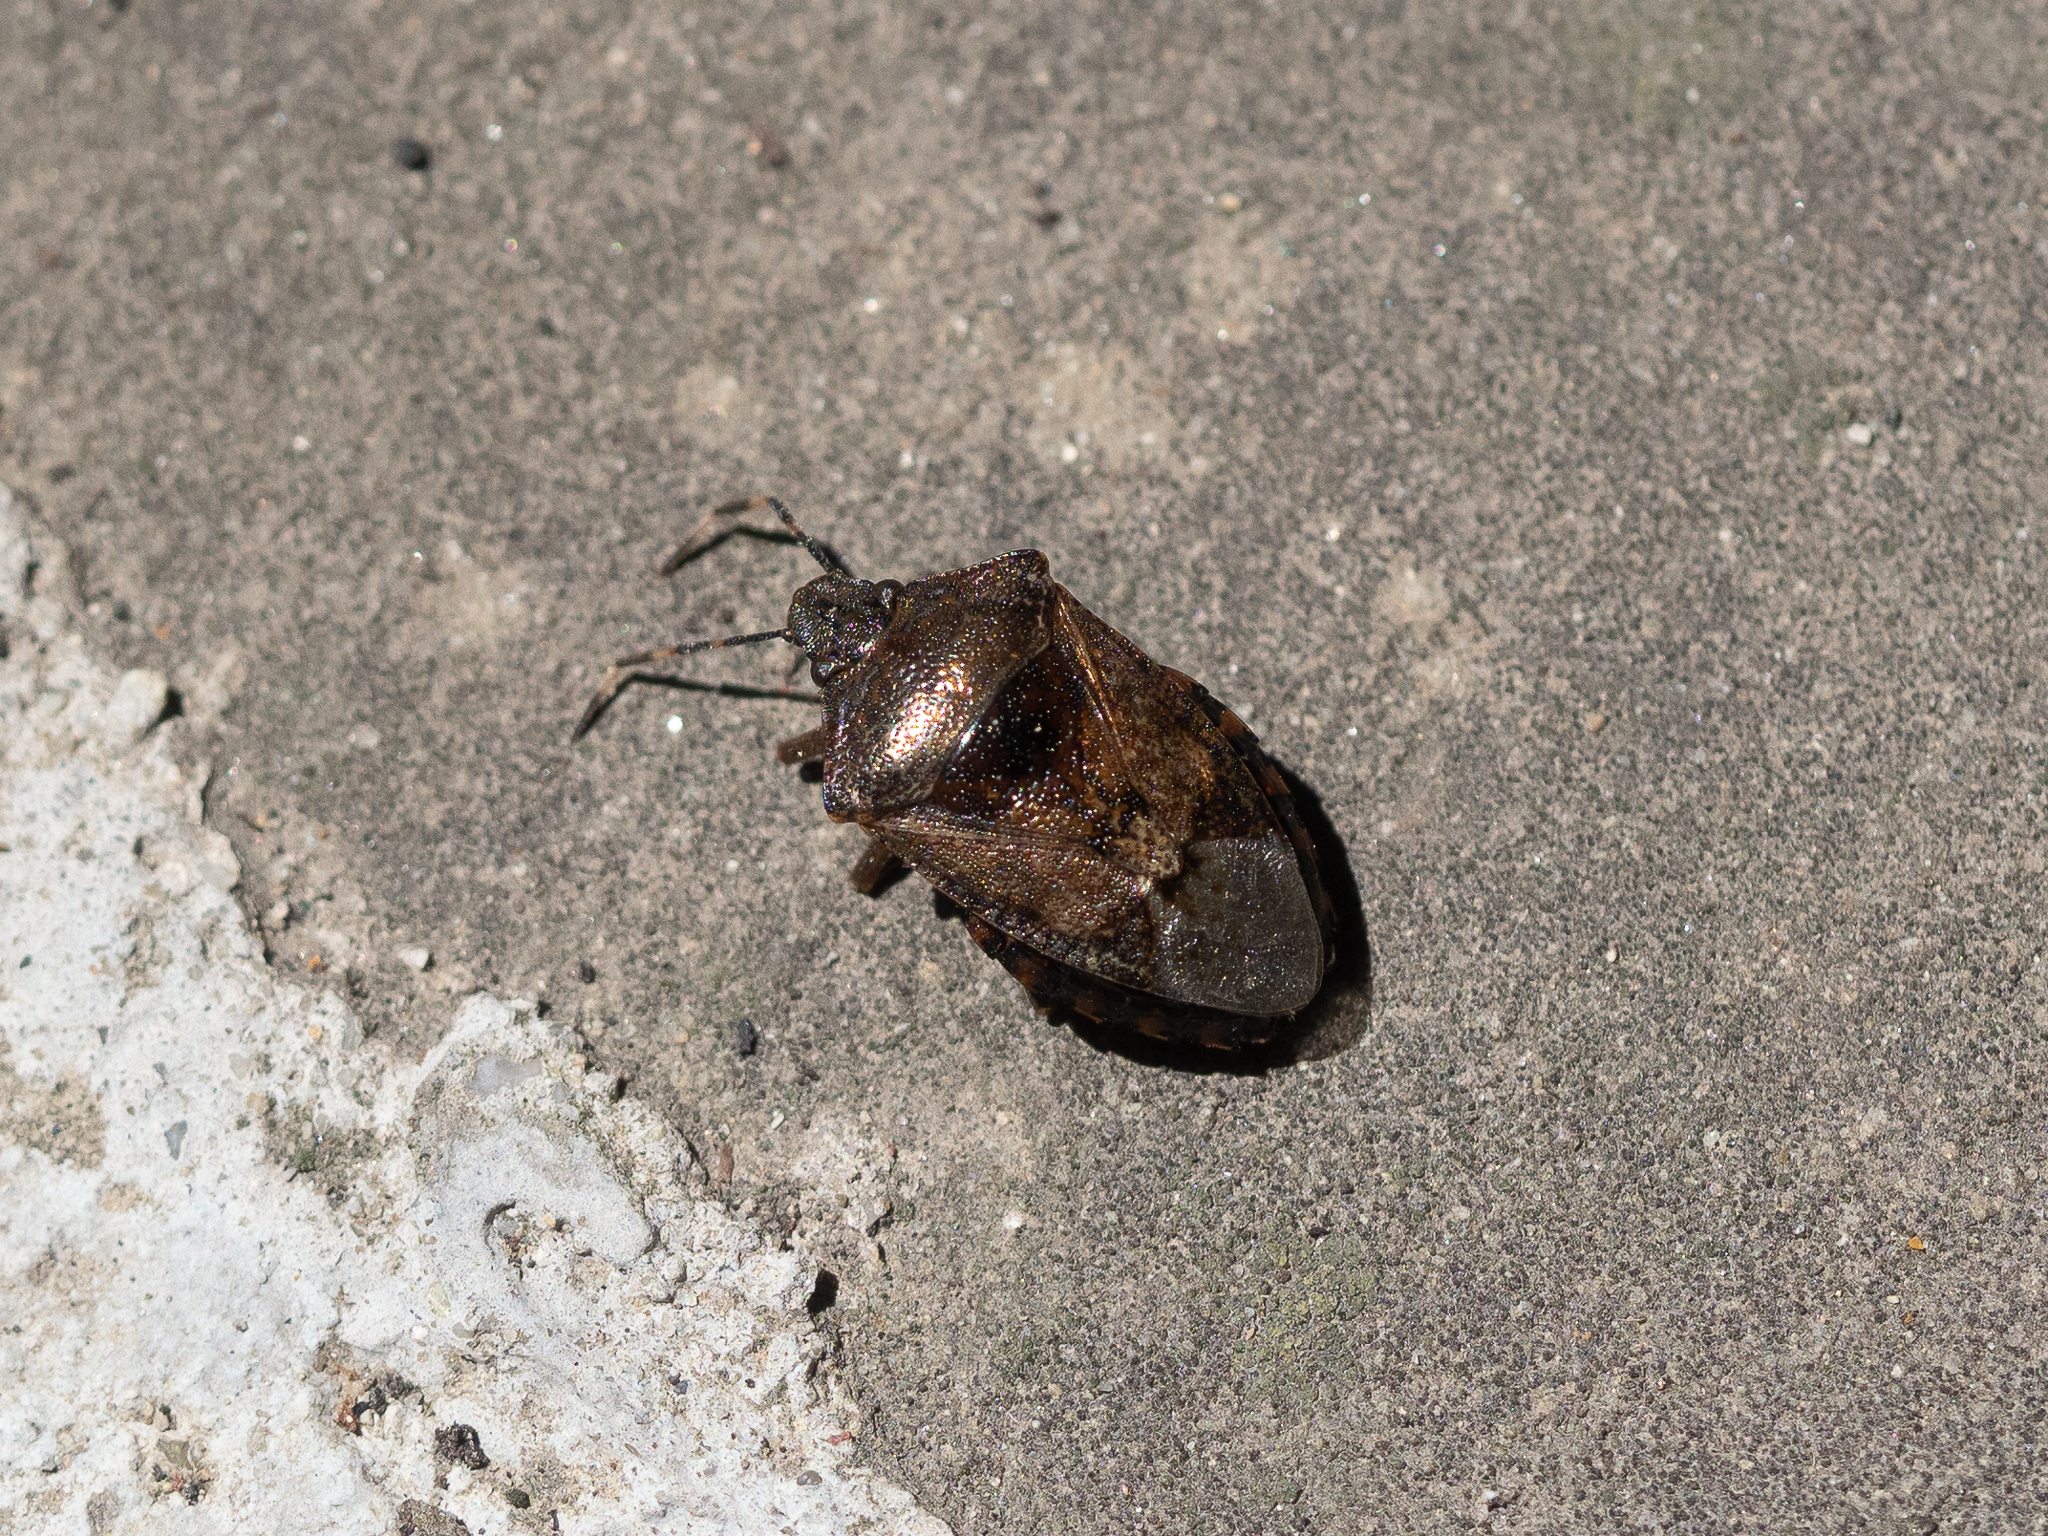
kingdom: Animalia
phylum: Arthropoda
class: Insecta
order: Hemiptera
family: Pentatomidae
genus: Rhaphigaster
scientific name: Rhaphigaster nebulosa
